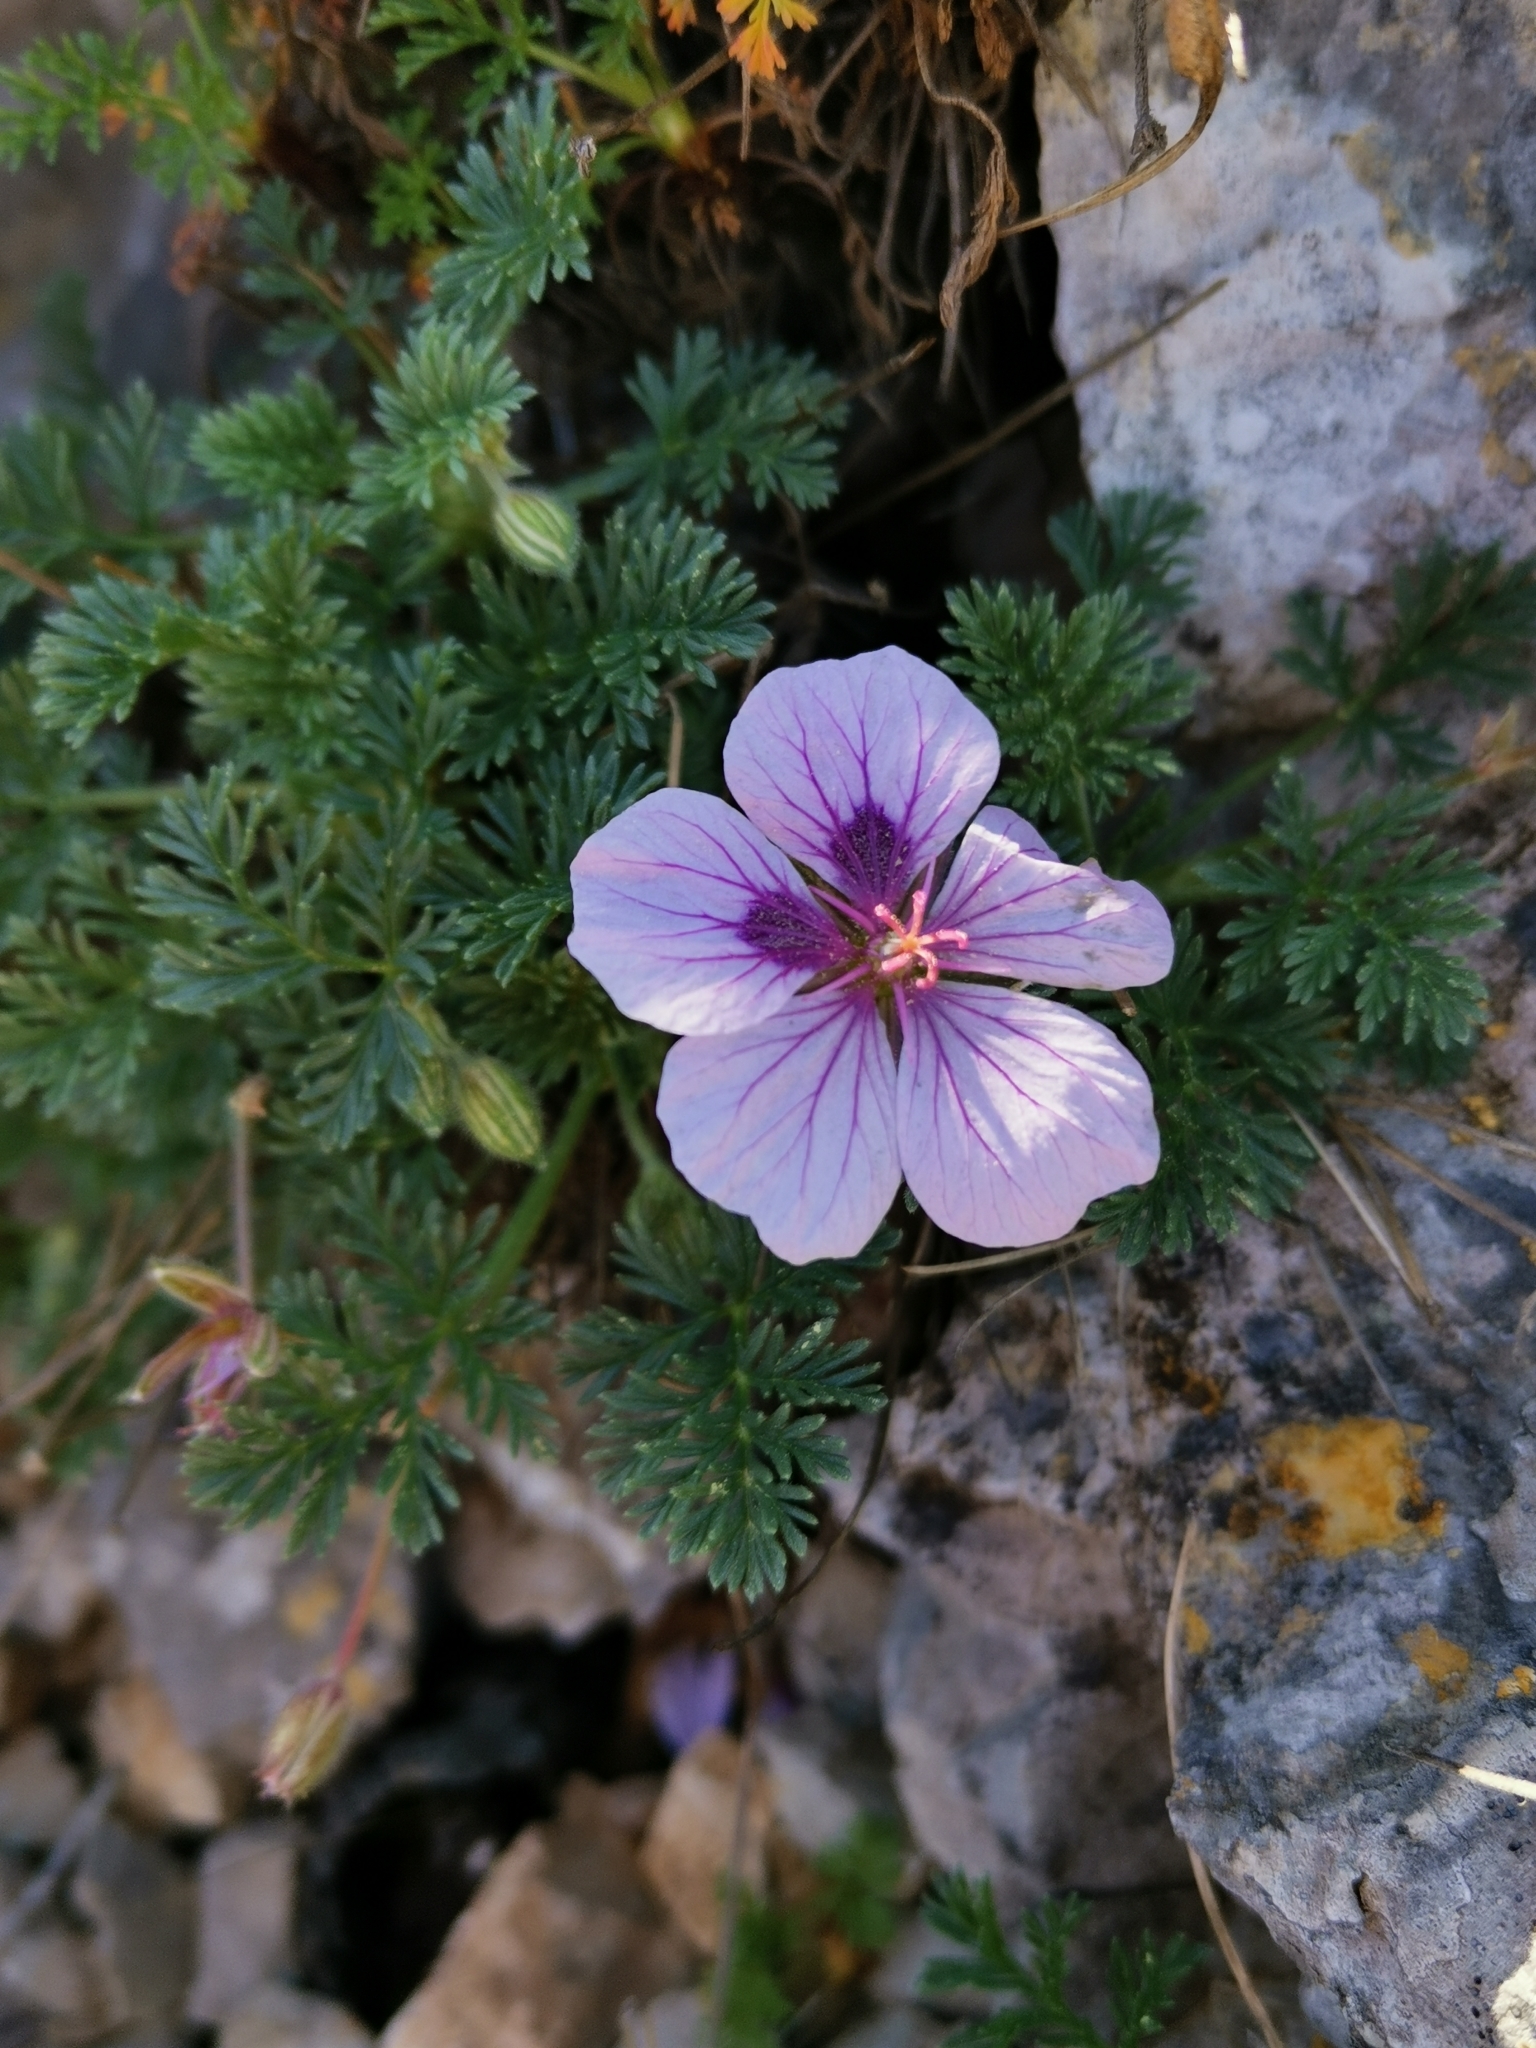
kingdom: Plantae
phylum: Tracheophyta
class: Magnoliopsida
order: Geraniales
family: Geraniaceae
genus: Erodium
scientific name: Erodium foetidum
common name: Rock stork's-bill
